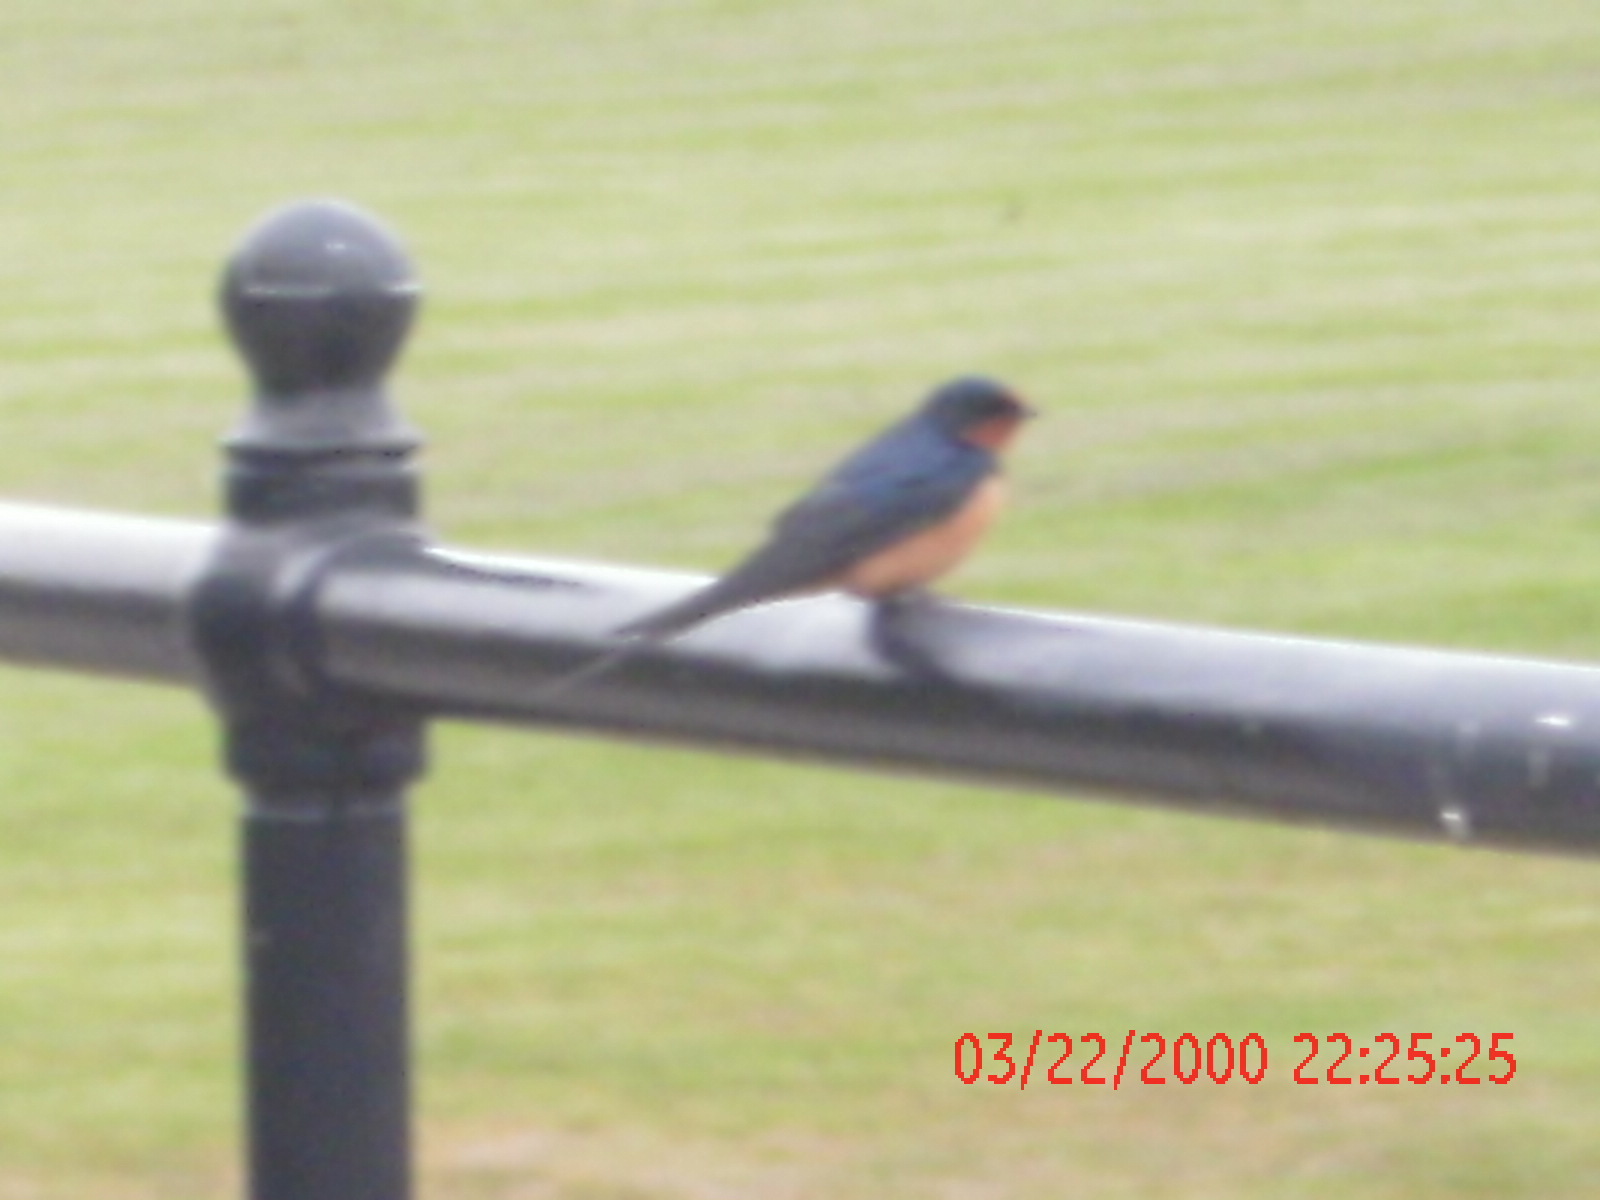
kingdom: Animalia
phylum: Chordata
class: Aves
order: Passeriformes
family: Hirundinidae
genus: Hirundo
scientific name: Hirundo rustica
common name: Barn swallow
